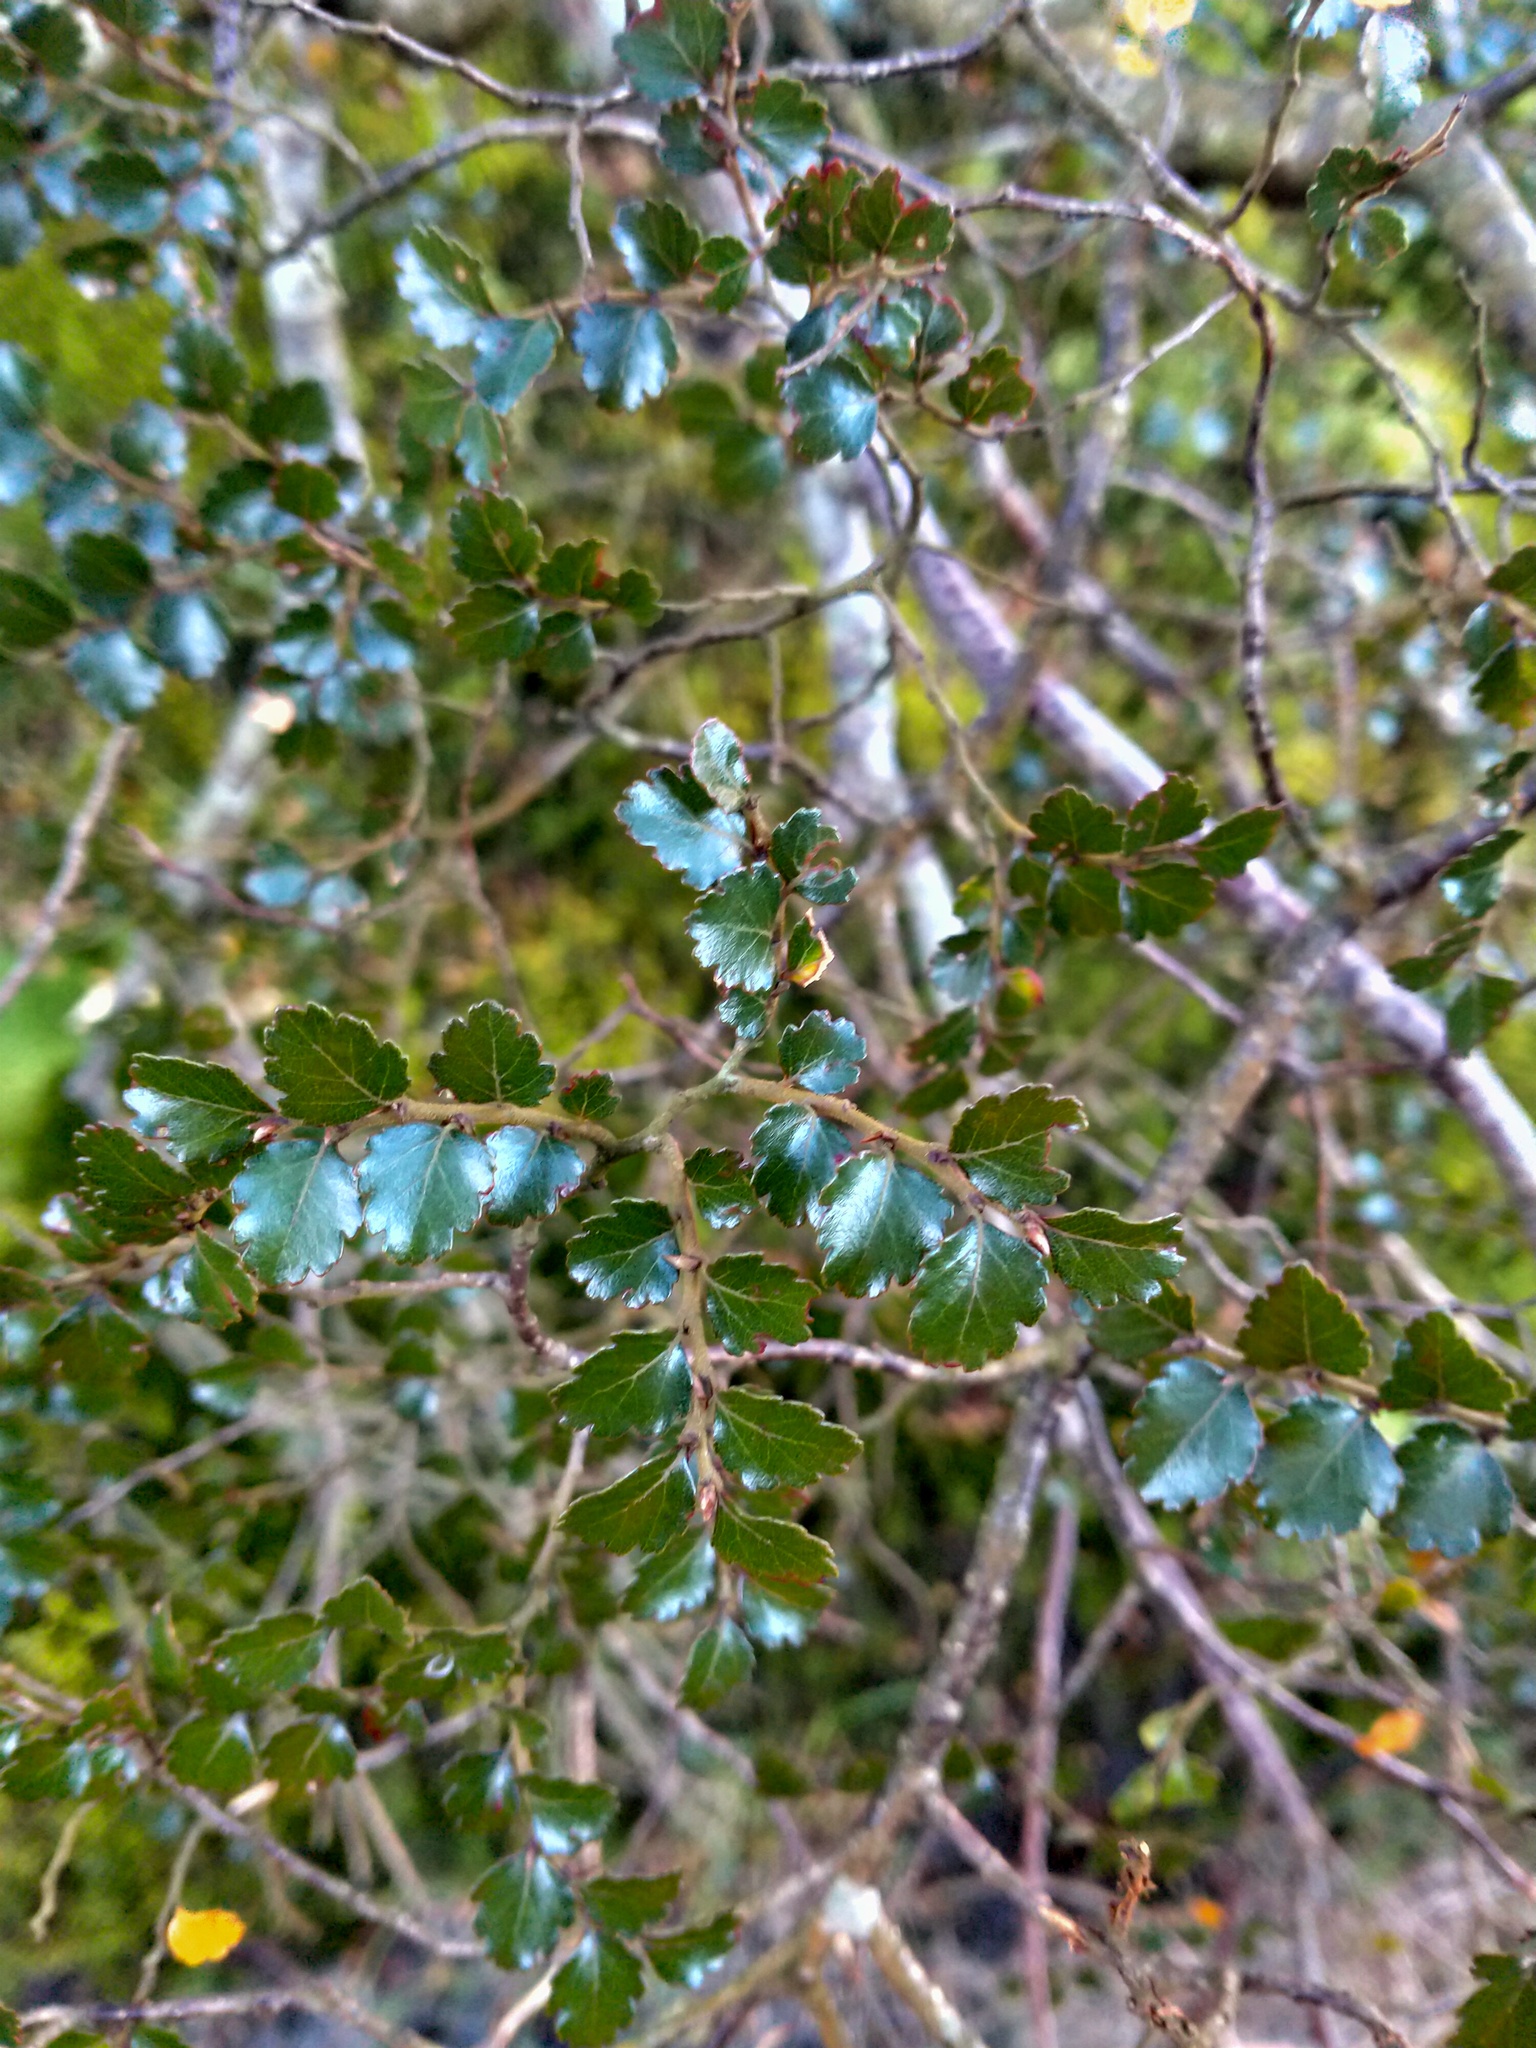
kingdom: Plantae
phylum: Tracheophyta
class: Magnoliopsida
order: Fagales
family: Nothofagaceae
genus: Nothofagus
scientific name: Nothofagus menziesii
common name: Silver beech
